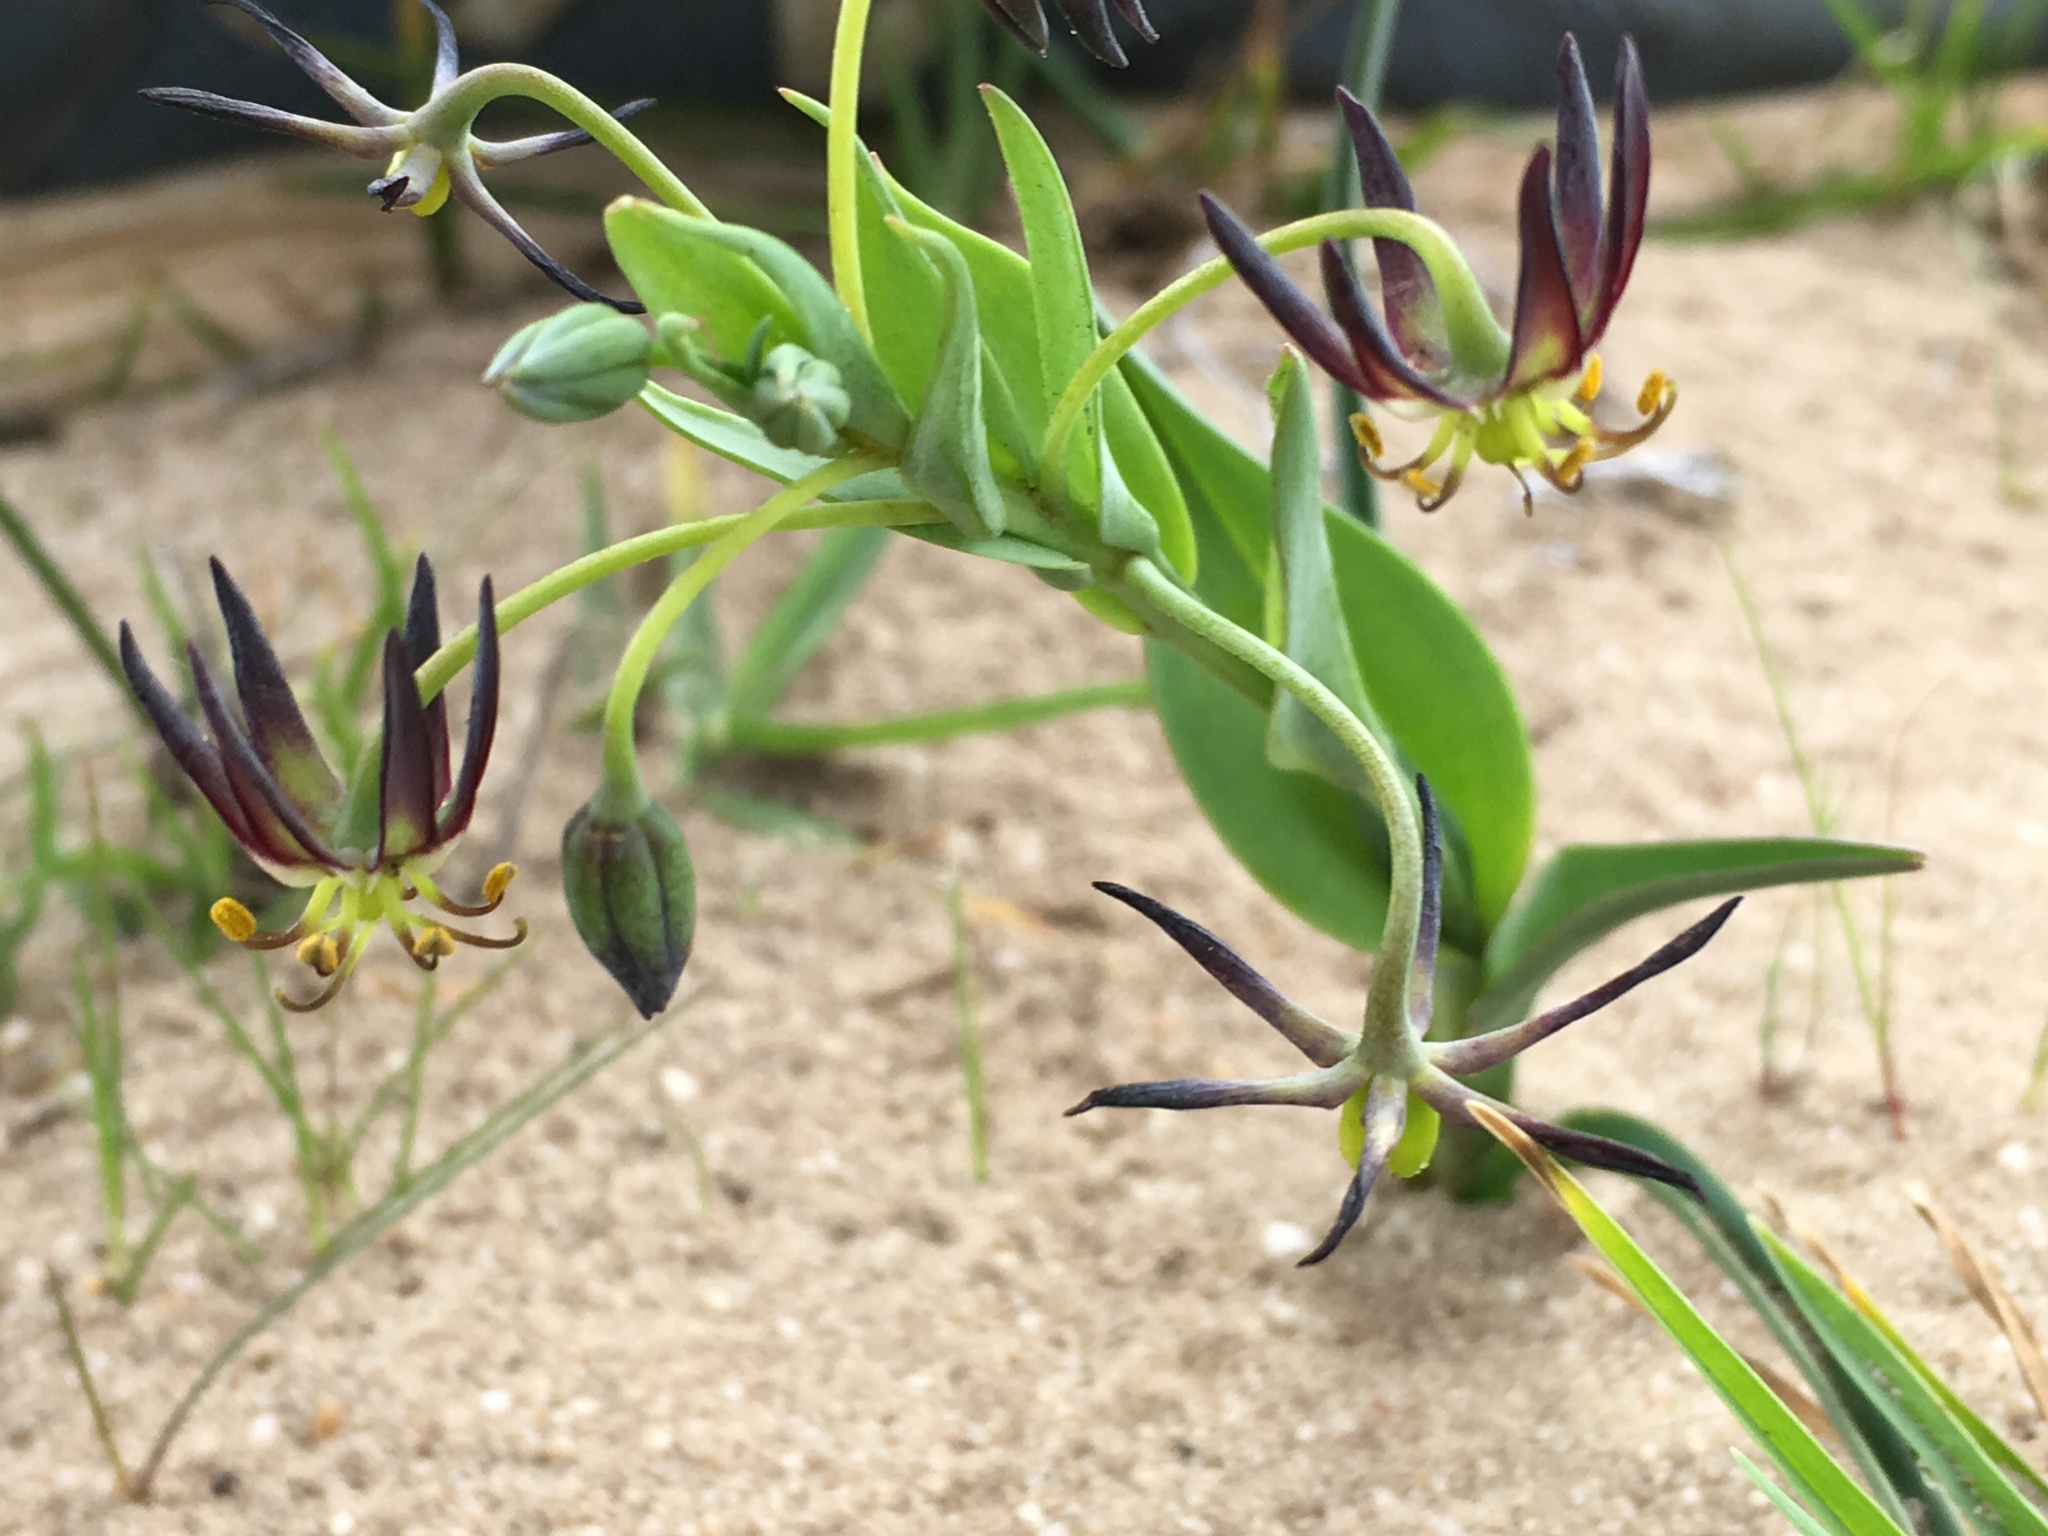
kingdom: Plantae
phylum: Tracheophyta
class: Liliopsida
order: Liliales
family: Colchicaceae
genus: Ornithoglossum
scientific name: Ornithoglossum viride
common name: Cape poison-onion
